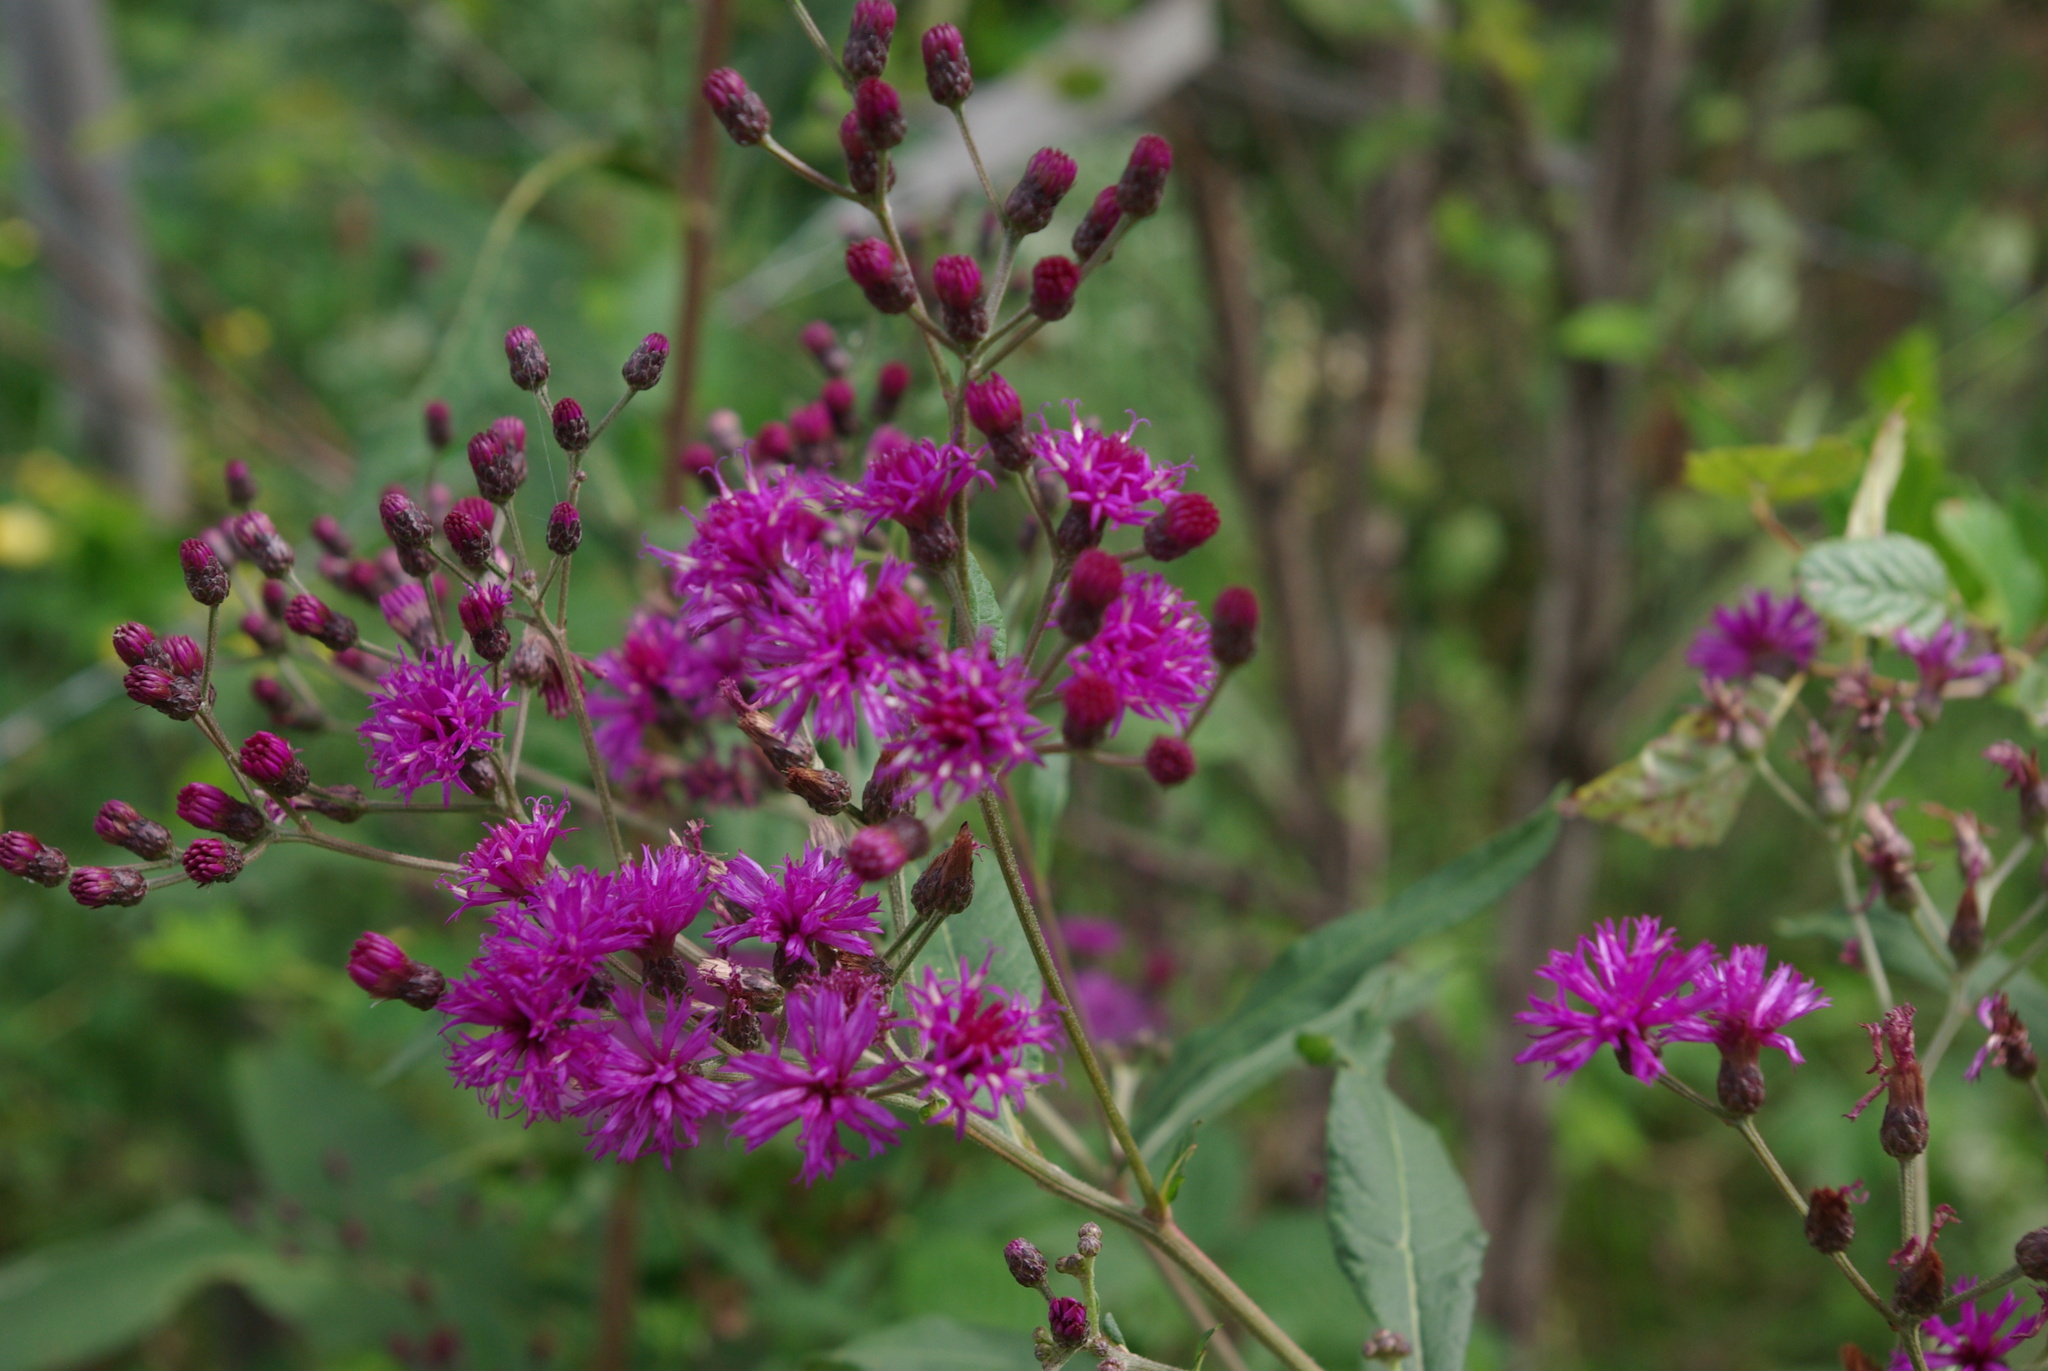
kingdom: Plantae
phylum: Tracheophyta
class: Magnoliopsida
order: Asterales
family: Asteraceae
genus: Vernonia
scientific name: Vernonia gigantea
